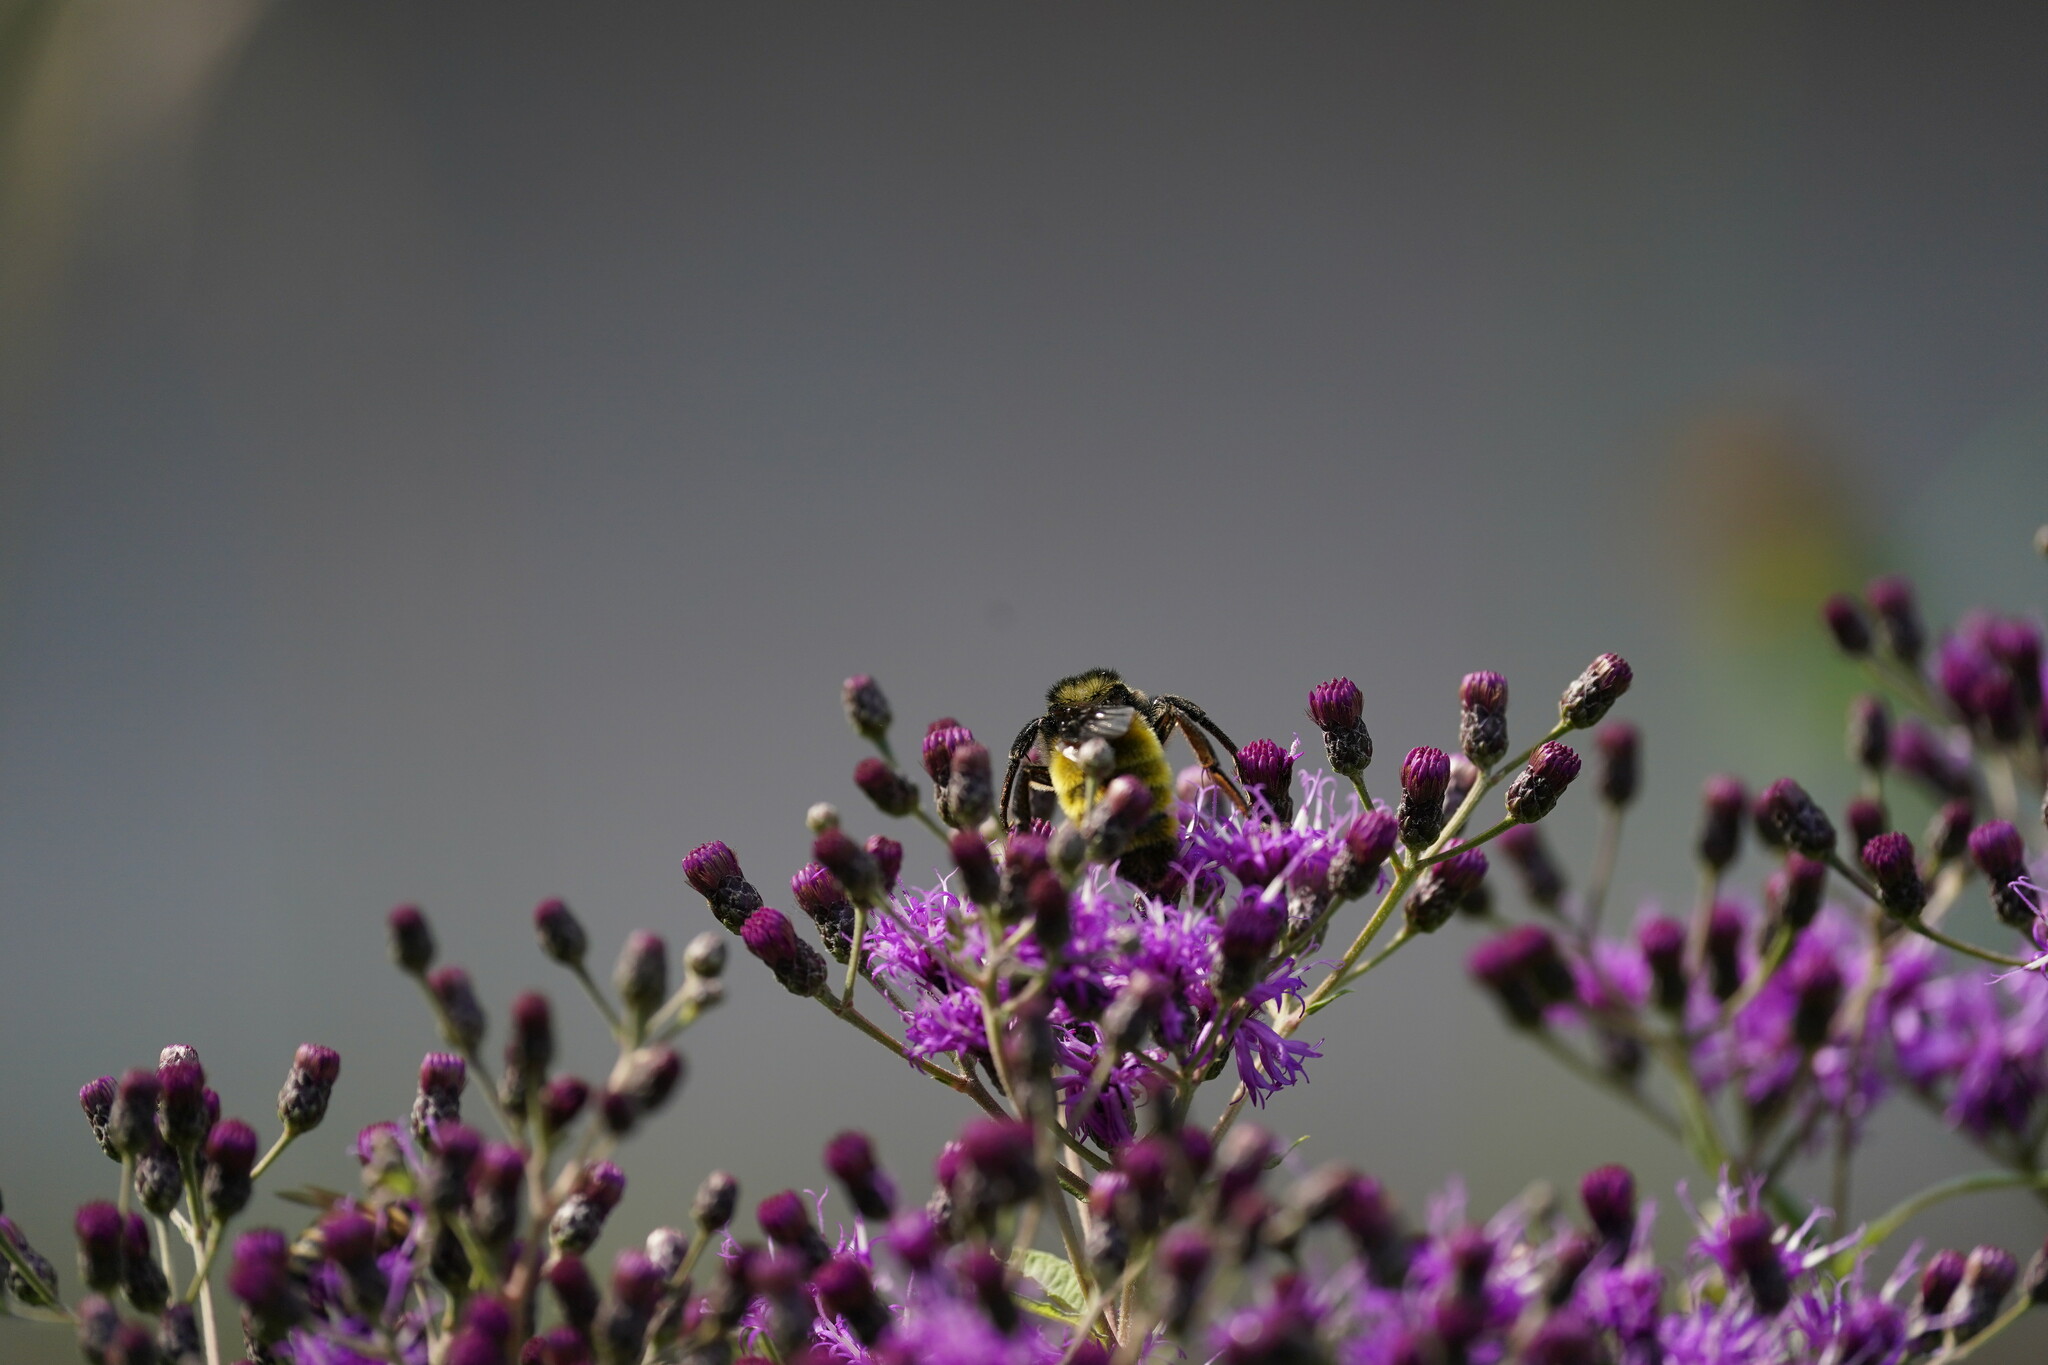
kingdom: Animalia
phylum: Arthropoda
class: Insecta
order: Hymenoptera
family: Apidae
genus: Bombus
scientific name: Bombus pensylvanicus
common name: Bumble bee
